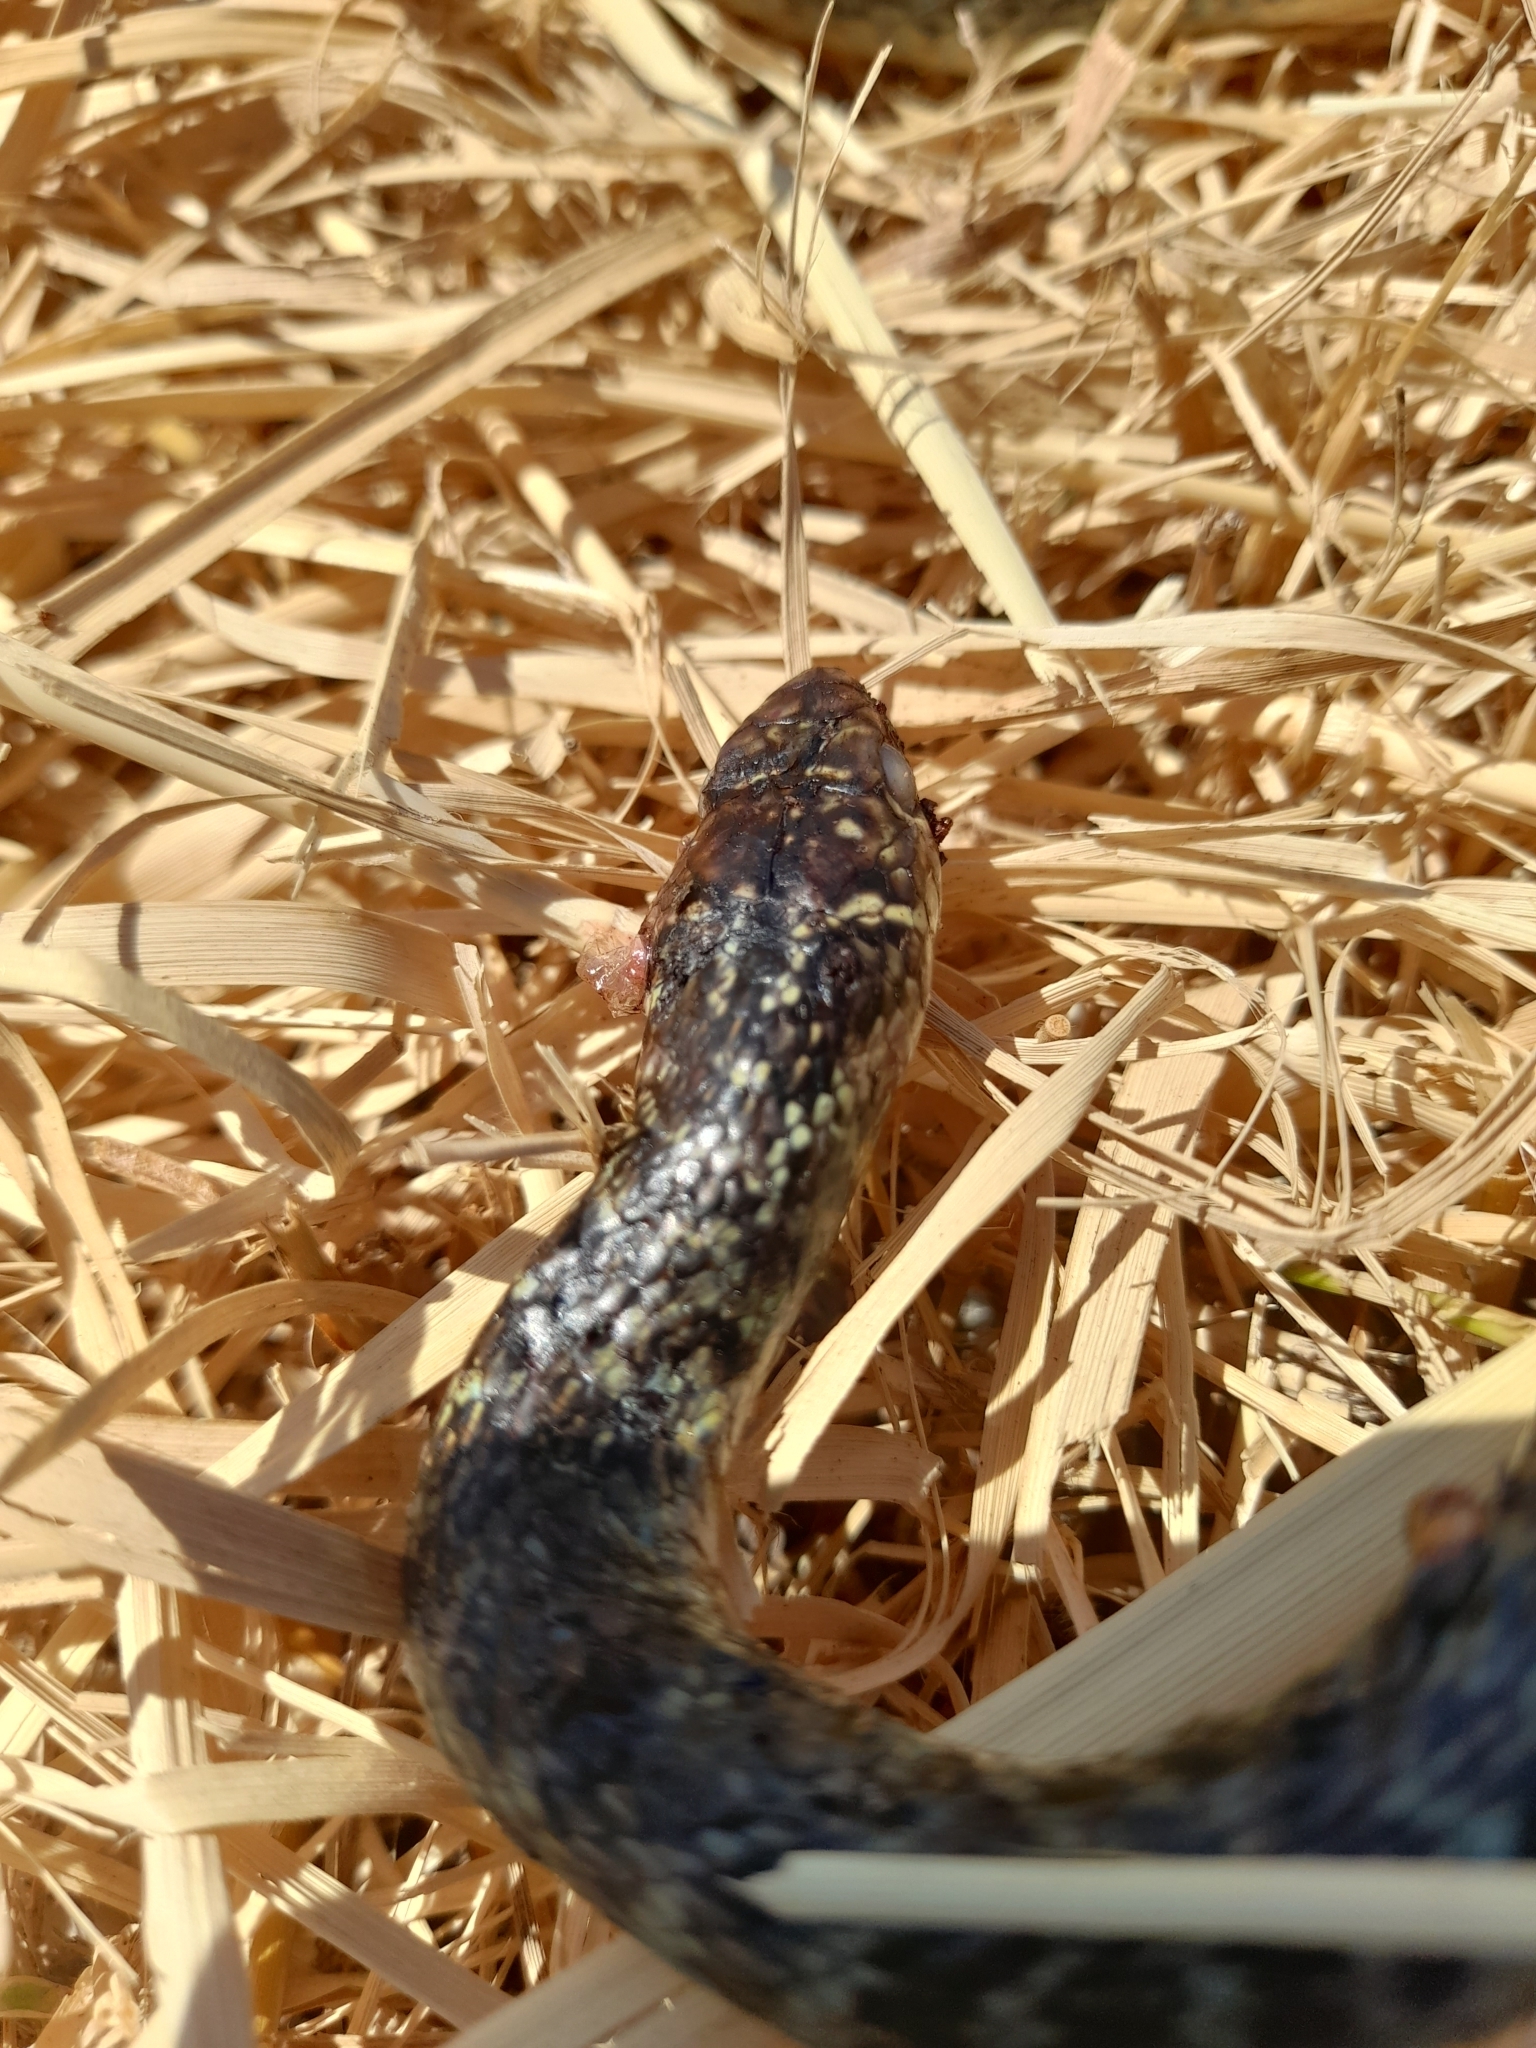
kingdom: Animalia
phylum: Chordata
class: Squamata
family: Colubridae
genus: Hierophis
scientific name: Hierophis viridiflavus
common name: Green whip snake
